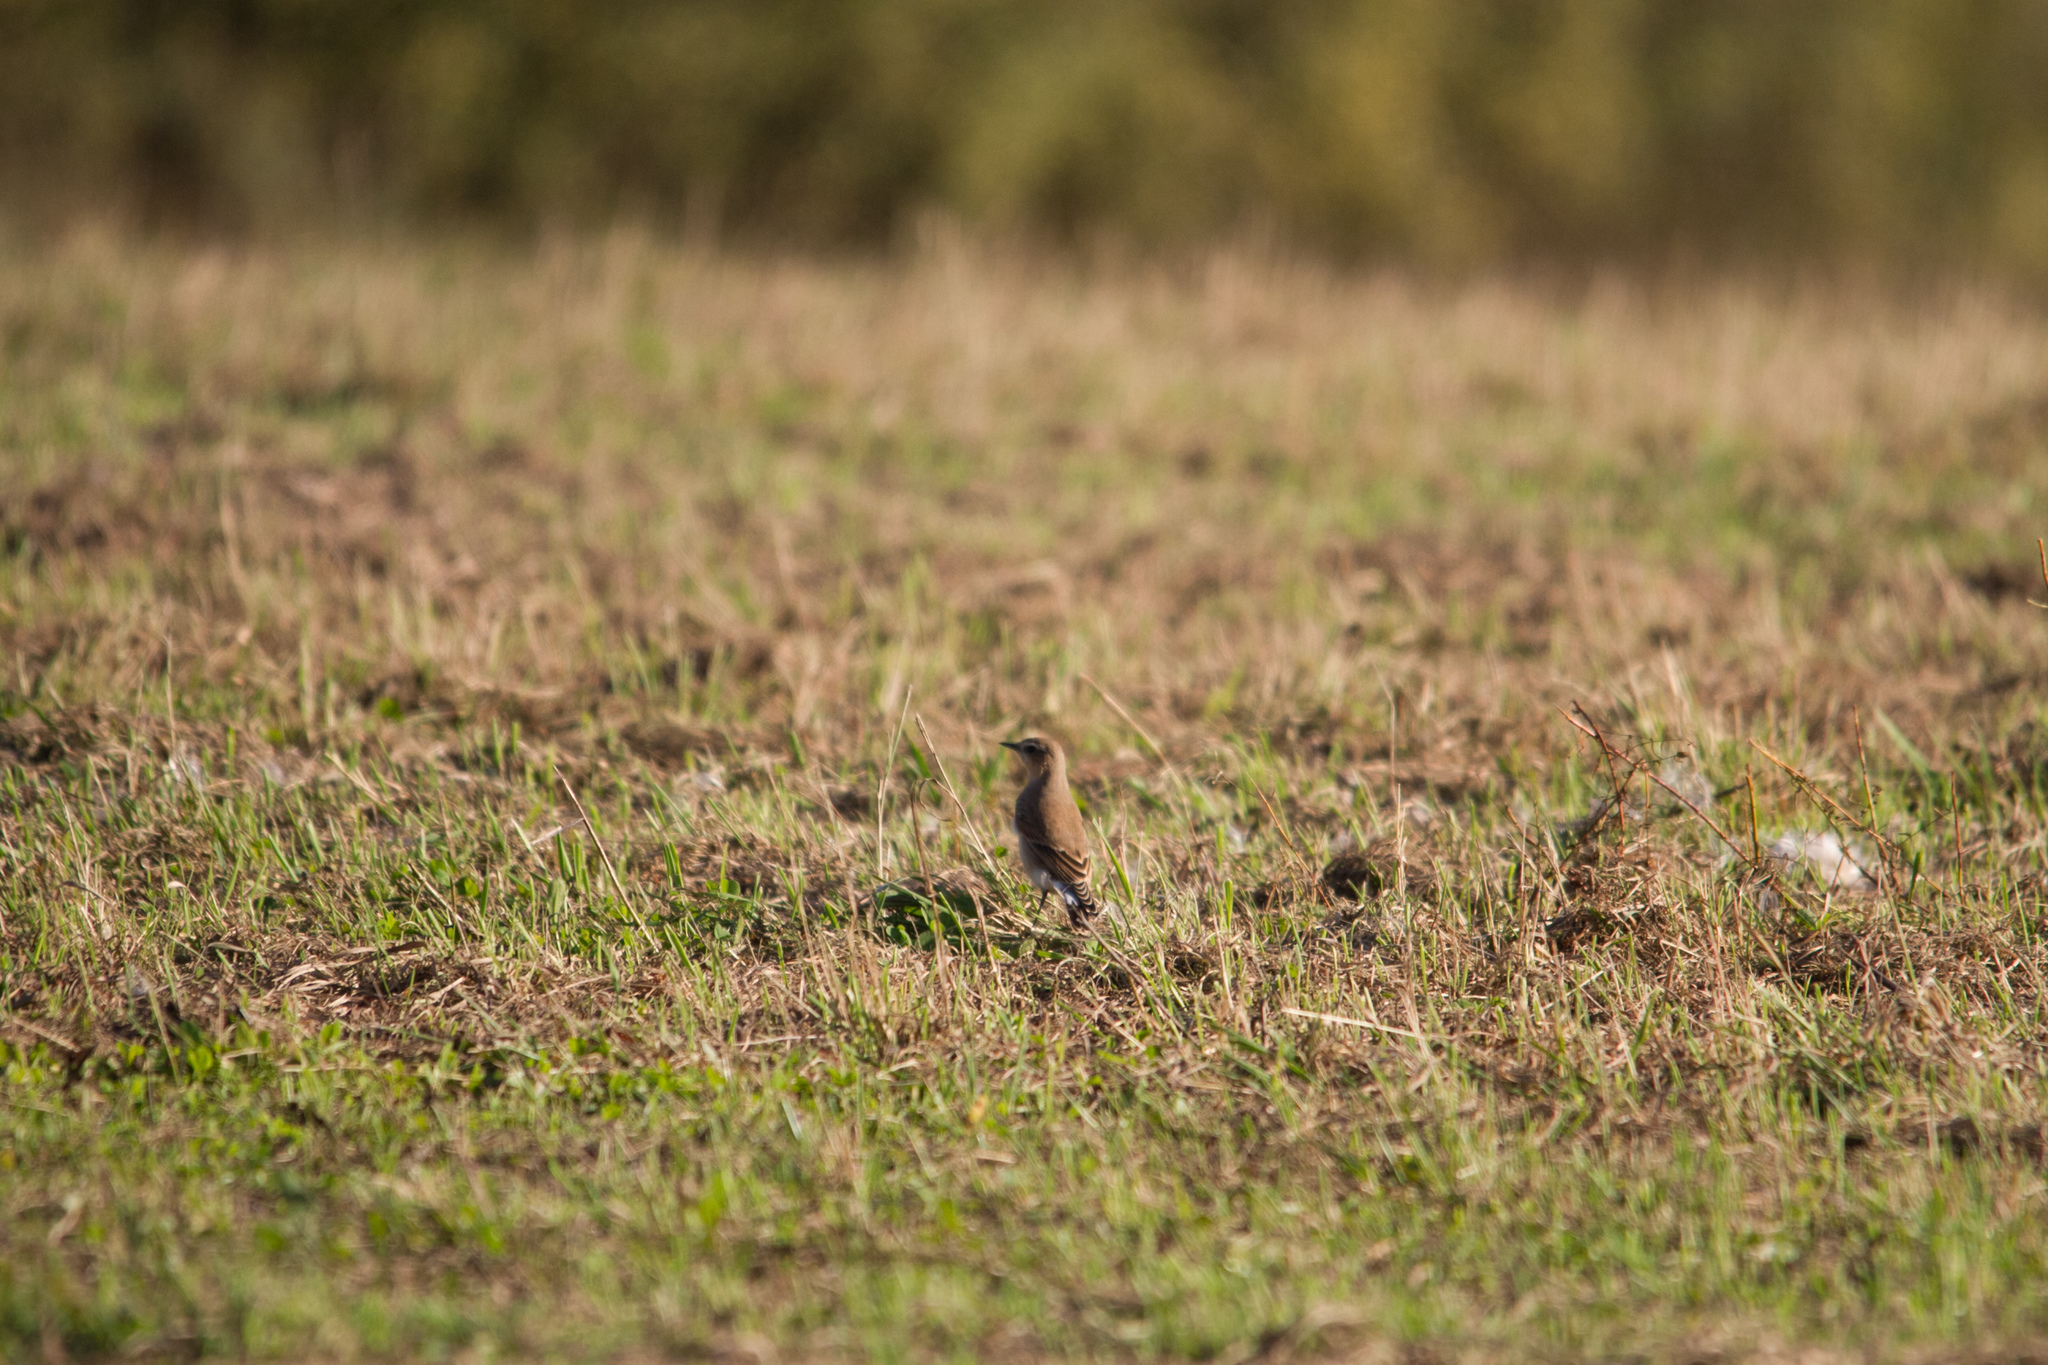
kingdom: Animalia
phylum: Chordata
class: Aves
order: Passeriformes
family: Muscicapidae
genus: Oenanthe
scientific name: Oenanthe oenanthe
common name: Northern wheatear
